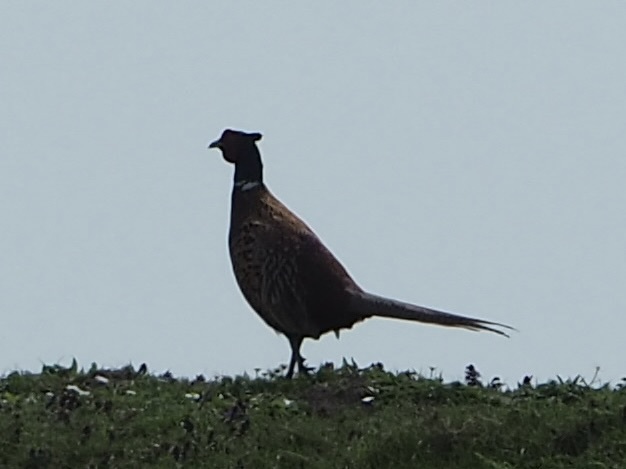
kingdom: Animalia
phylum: Chordata
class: Aves
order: Galliformes
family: Phasianidae
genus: Phasianus
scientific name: Phasianus colchicus
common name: Common pheasant
